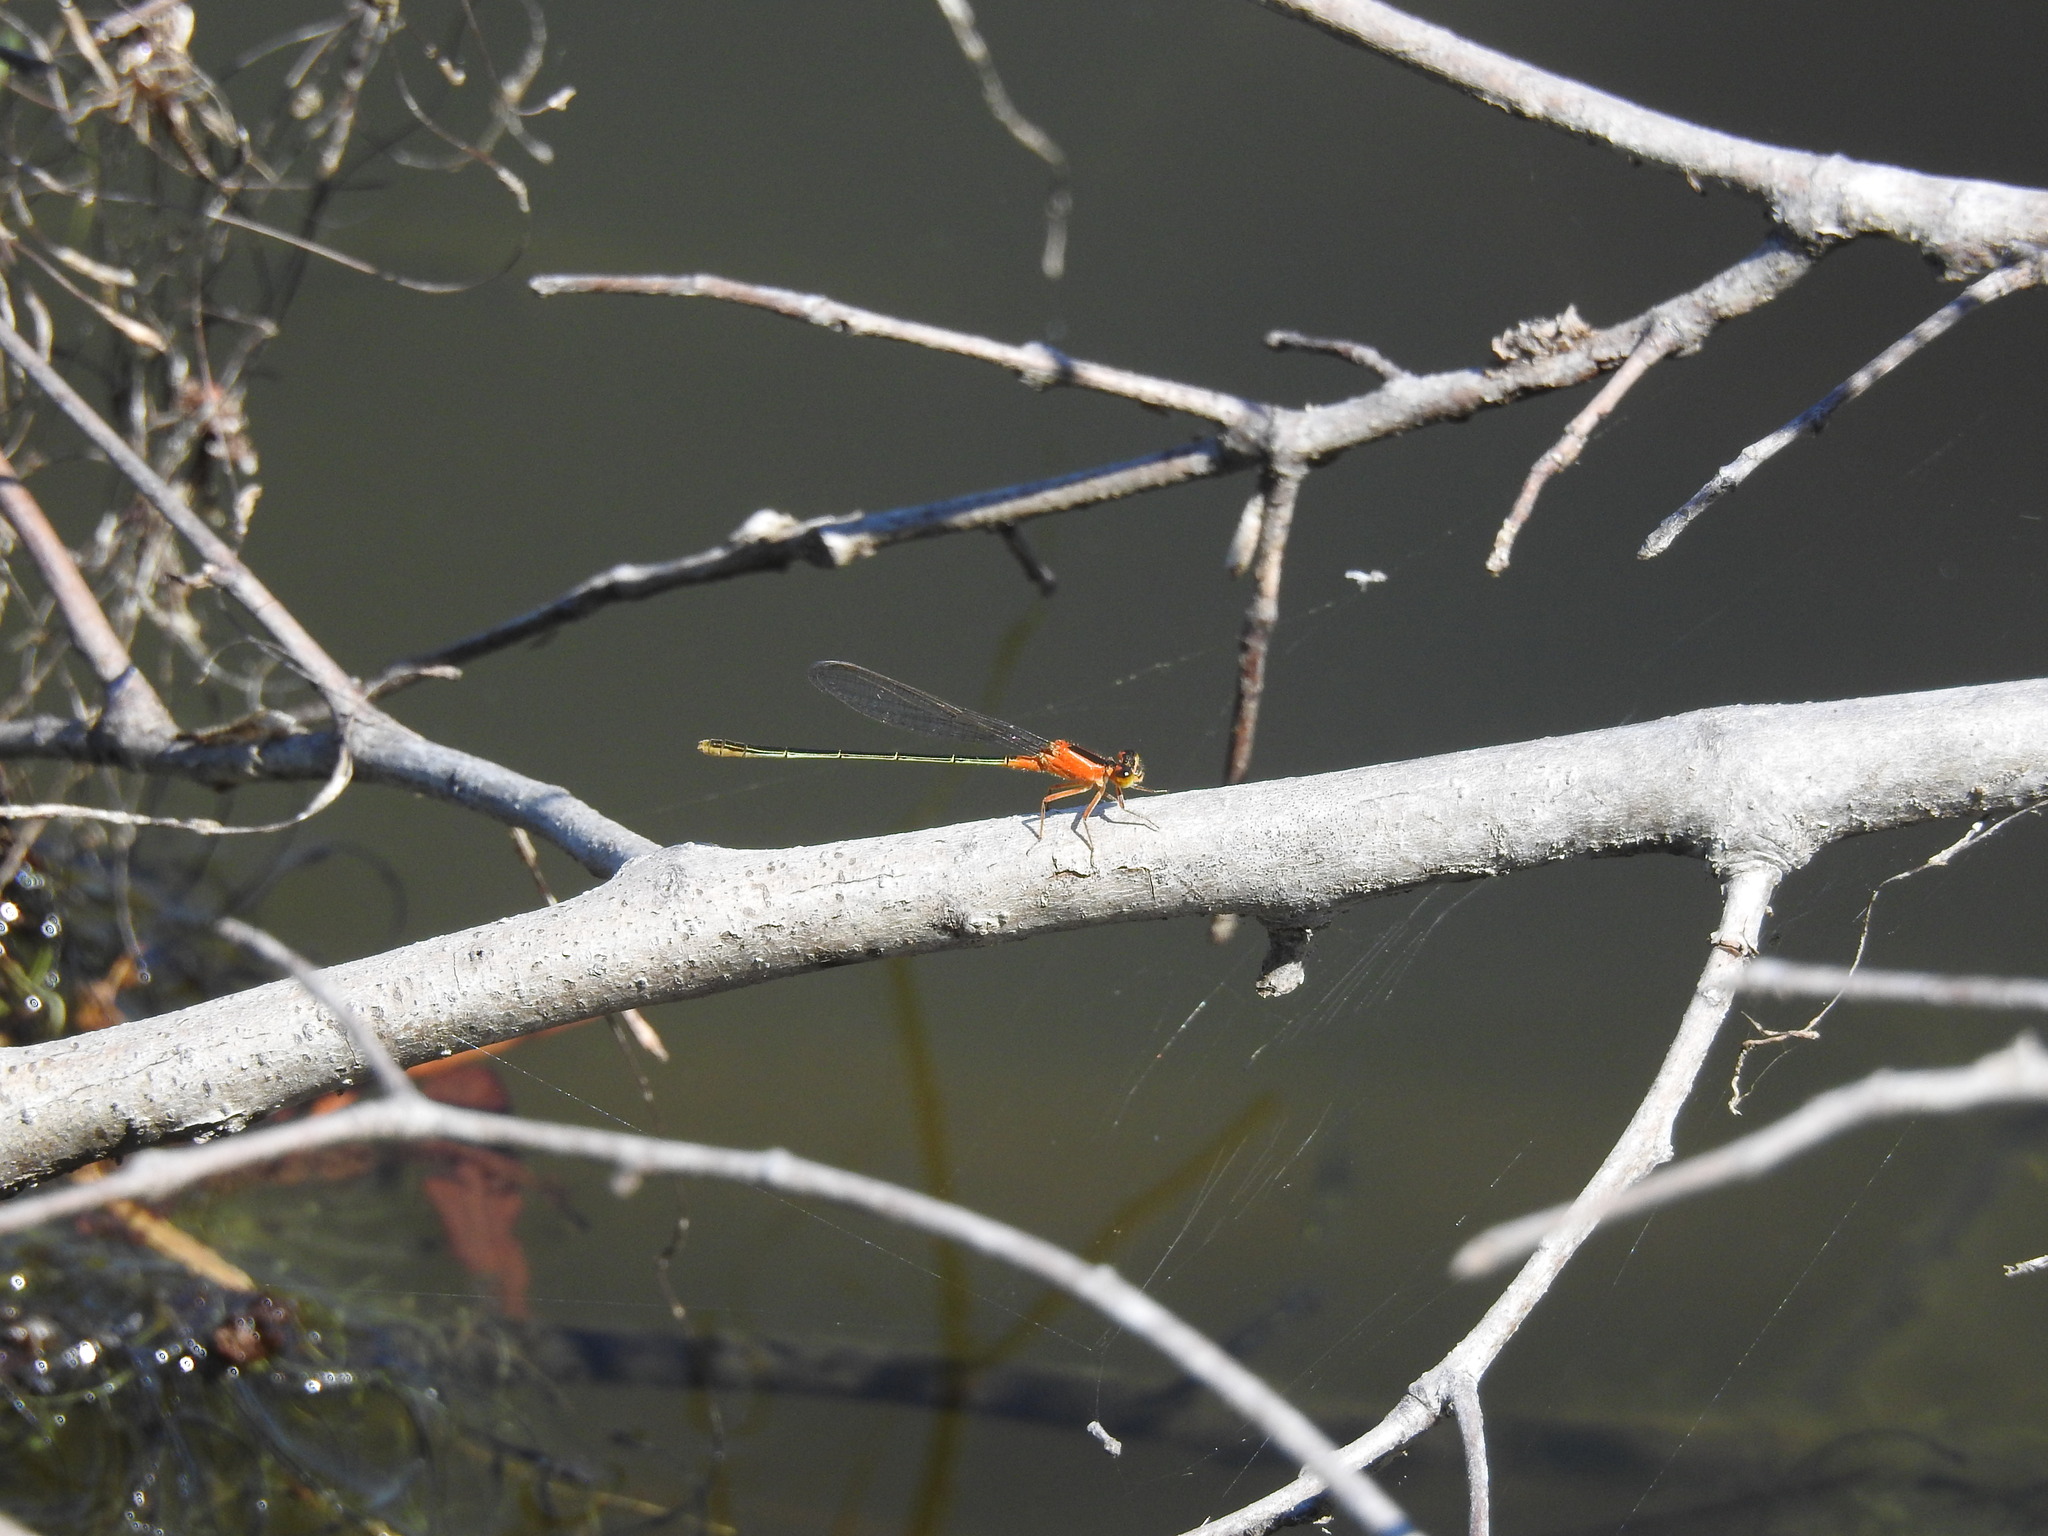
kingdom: Animalia
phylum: Arthropoda
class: Insecta
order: Odonata
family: Coenagrionidae
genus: Ischnura
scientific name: Ischnura ramburii
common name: Rambur's forktail
